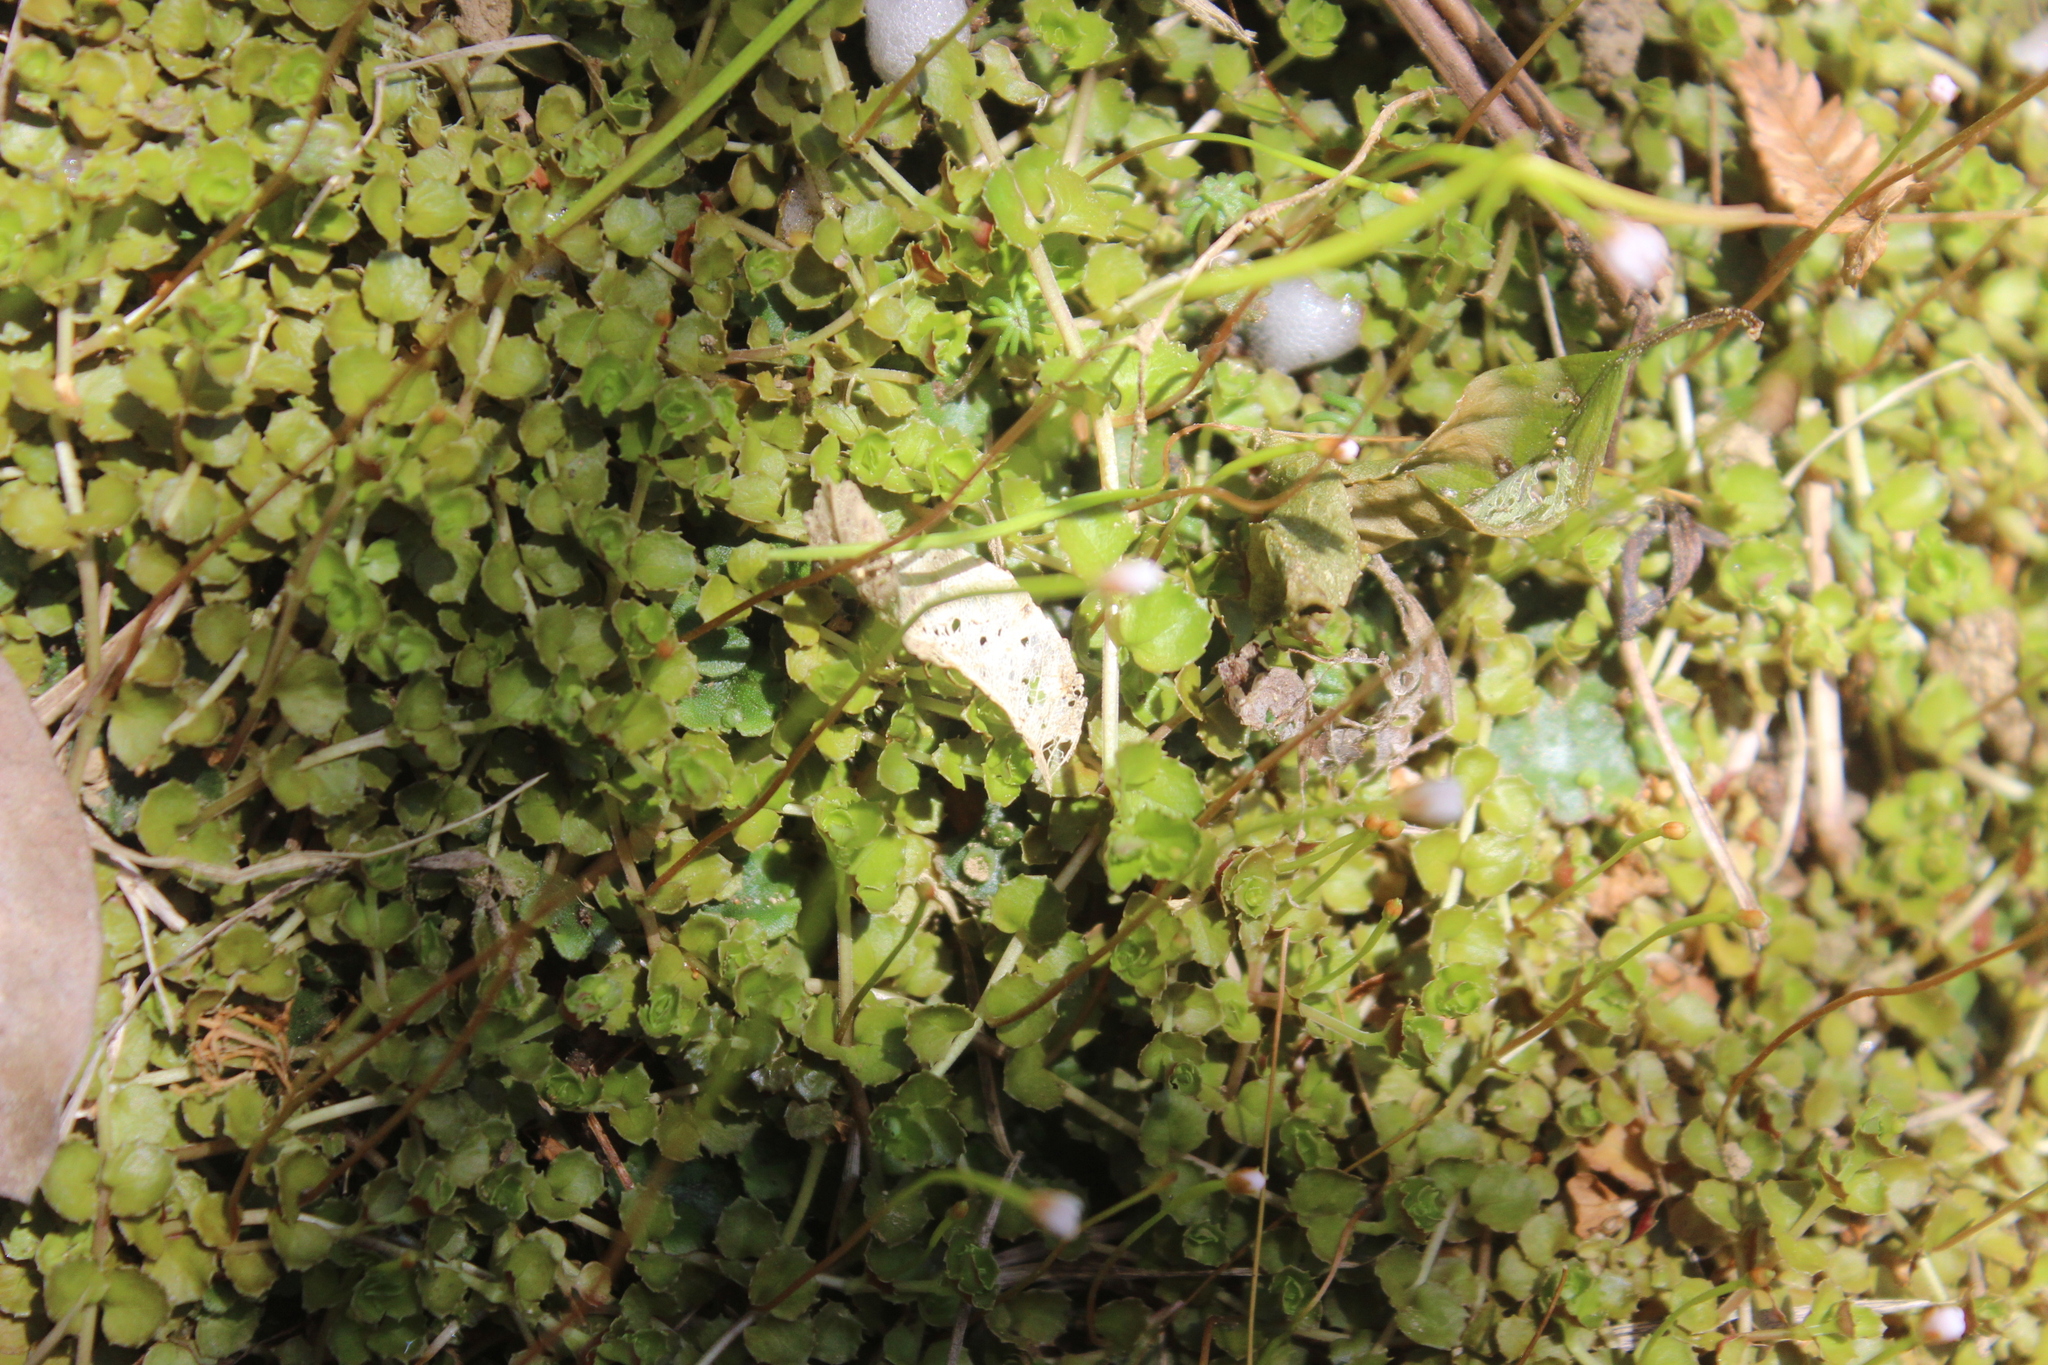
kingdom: Plantae
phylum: Tracheophyta
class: Magnoliopsida
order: Myrtales
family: Onagraceae
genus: Epilobium
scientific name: Epilobium pedunculare
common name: Rockery willowherb
